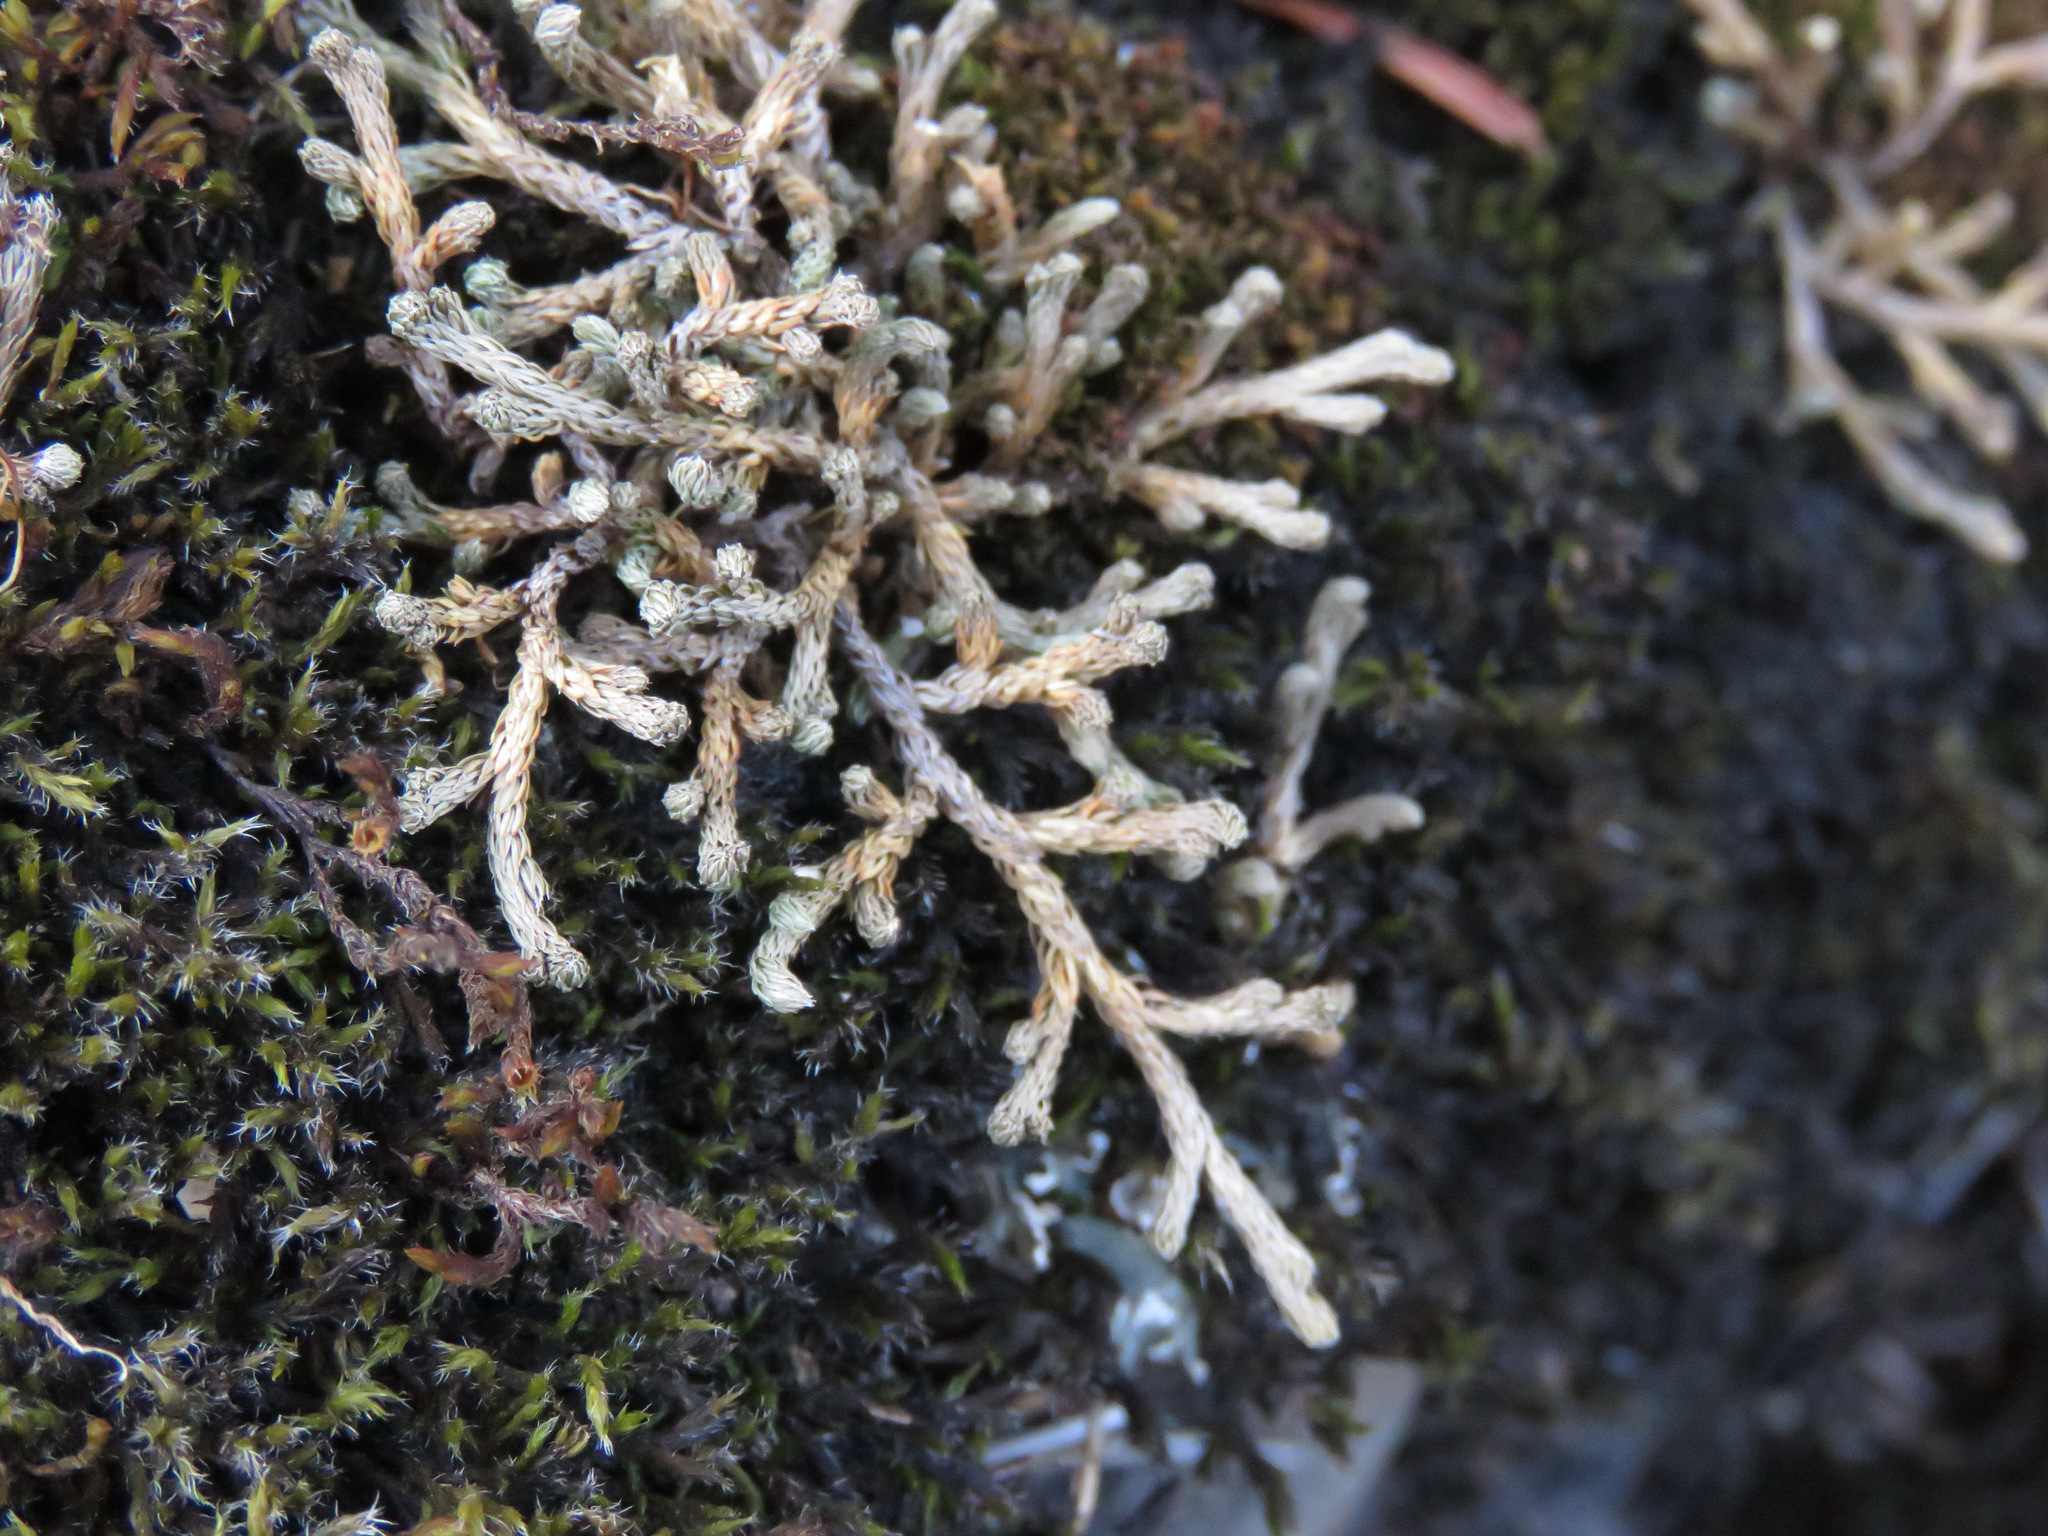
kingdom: Plantae
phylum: Tracheophyta
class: Lycopodiopsida
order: Selaginellales
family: Selaginellaceae
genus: Selaginella
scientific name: Selaginella wallacei
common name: Wallace's selaginella
